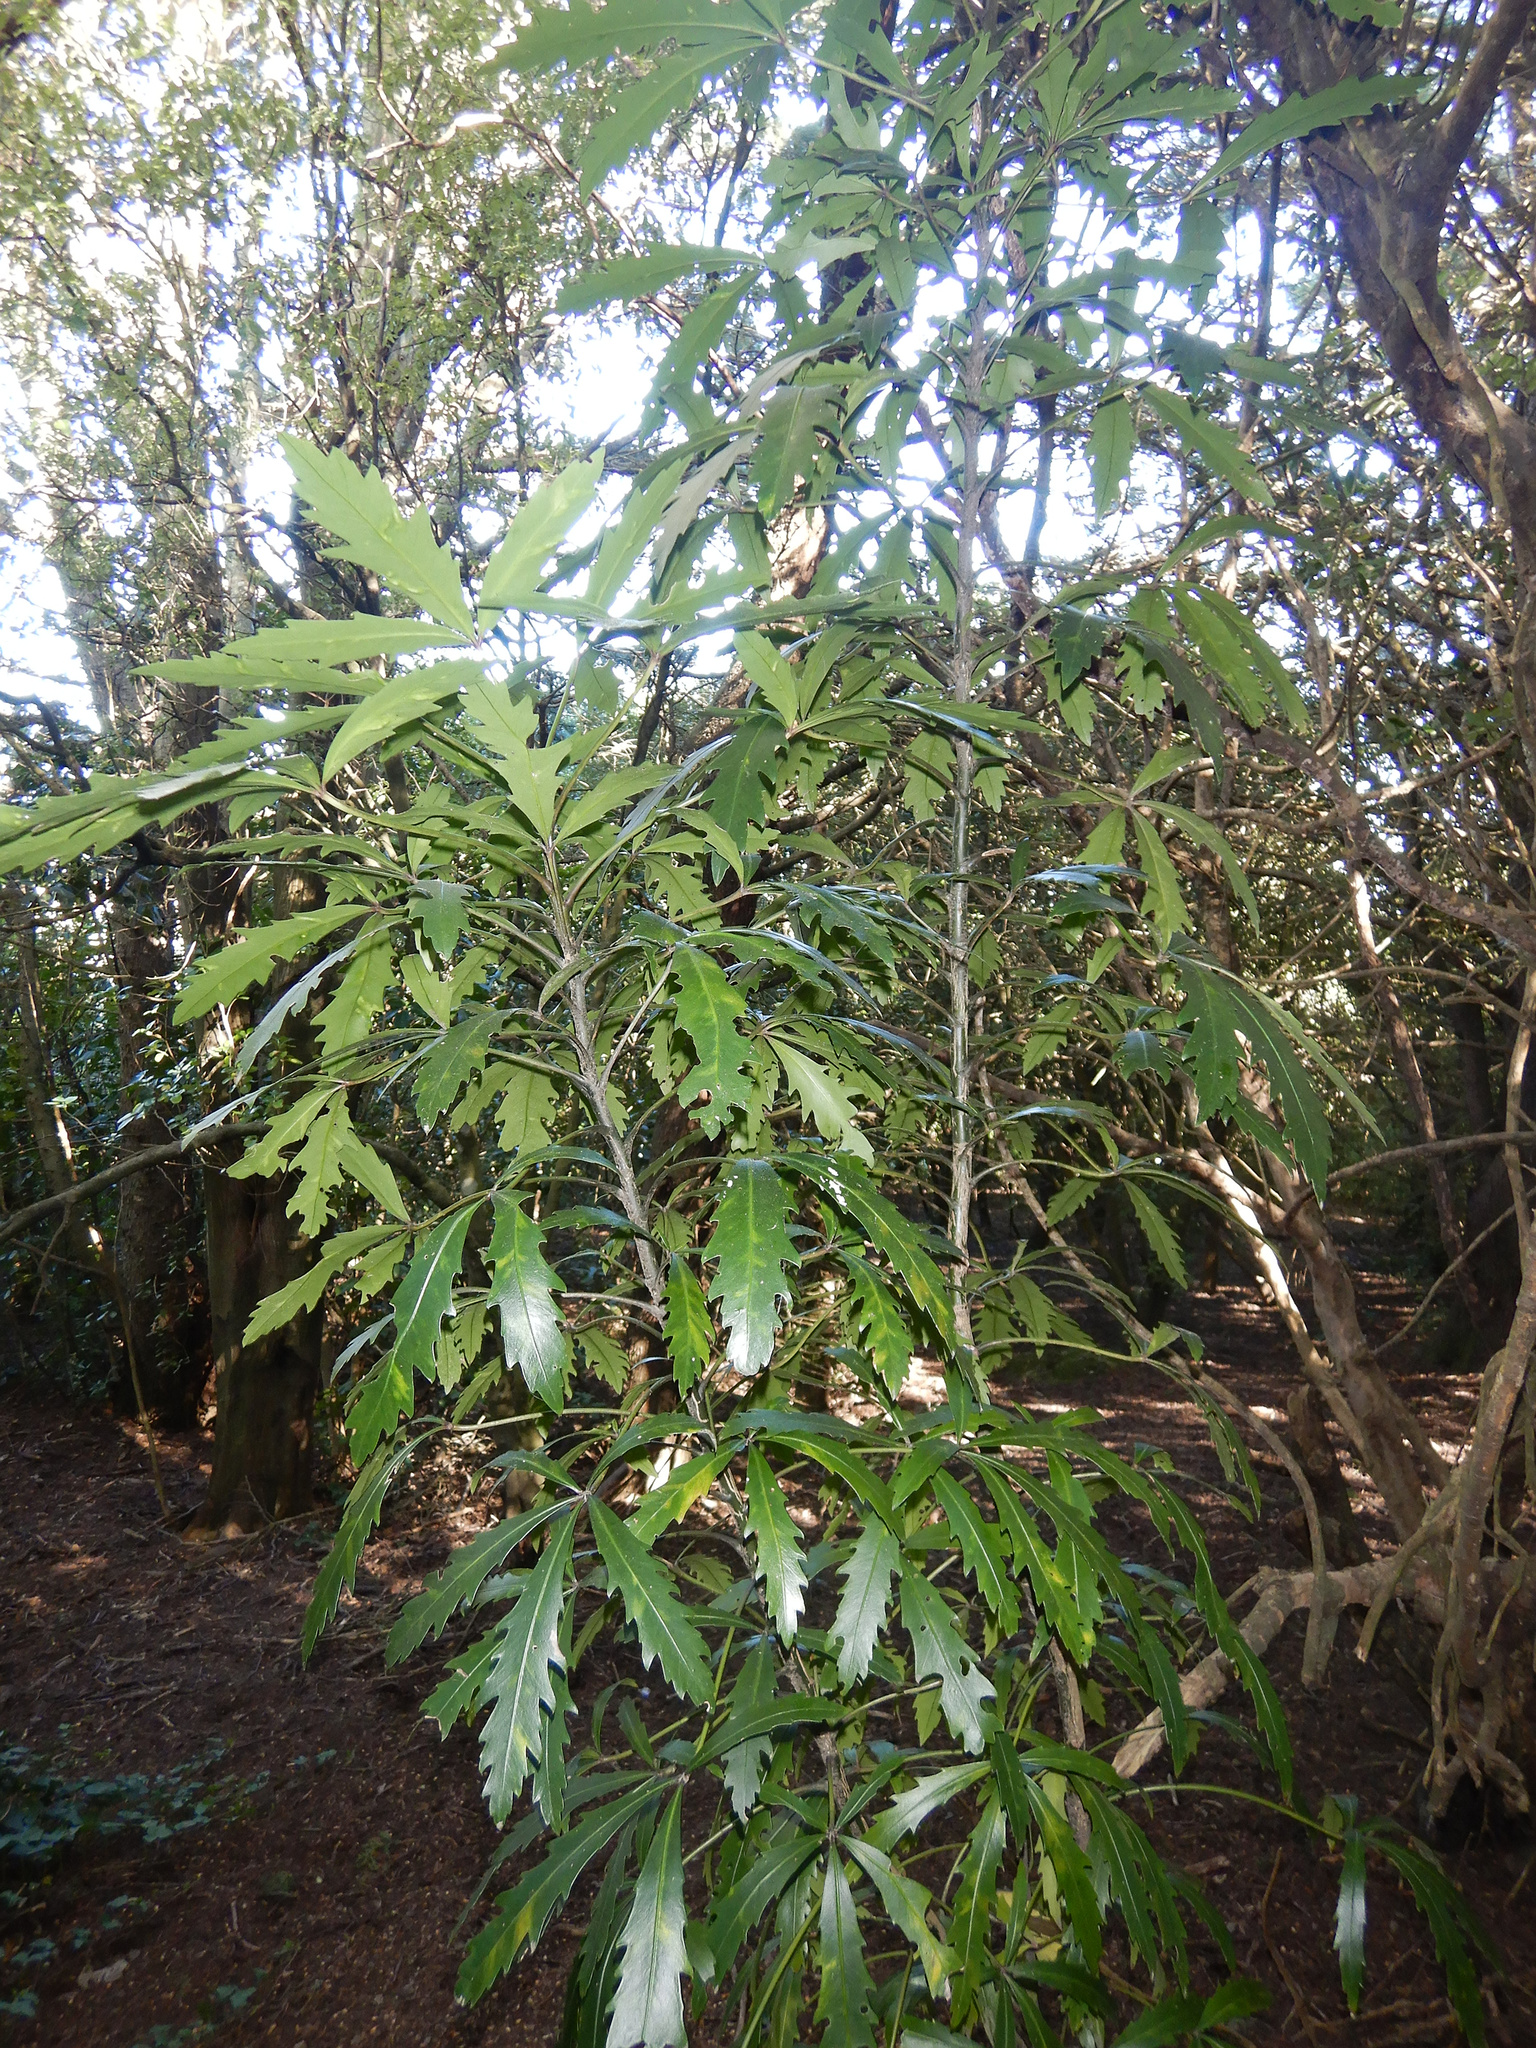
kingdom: Plantae
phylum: Tracheophyta
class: Magnoliopsida
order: Apiales
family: Araliaceae
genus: Pseudopanax
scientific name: Pseudopanax
